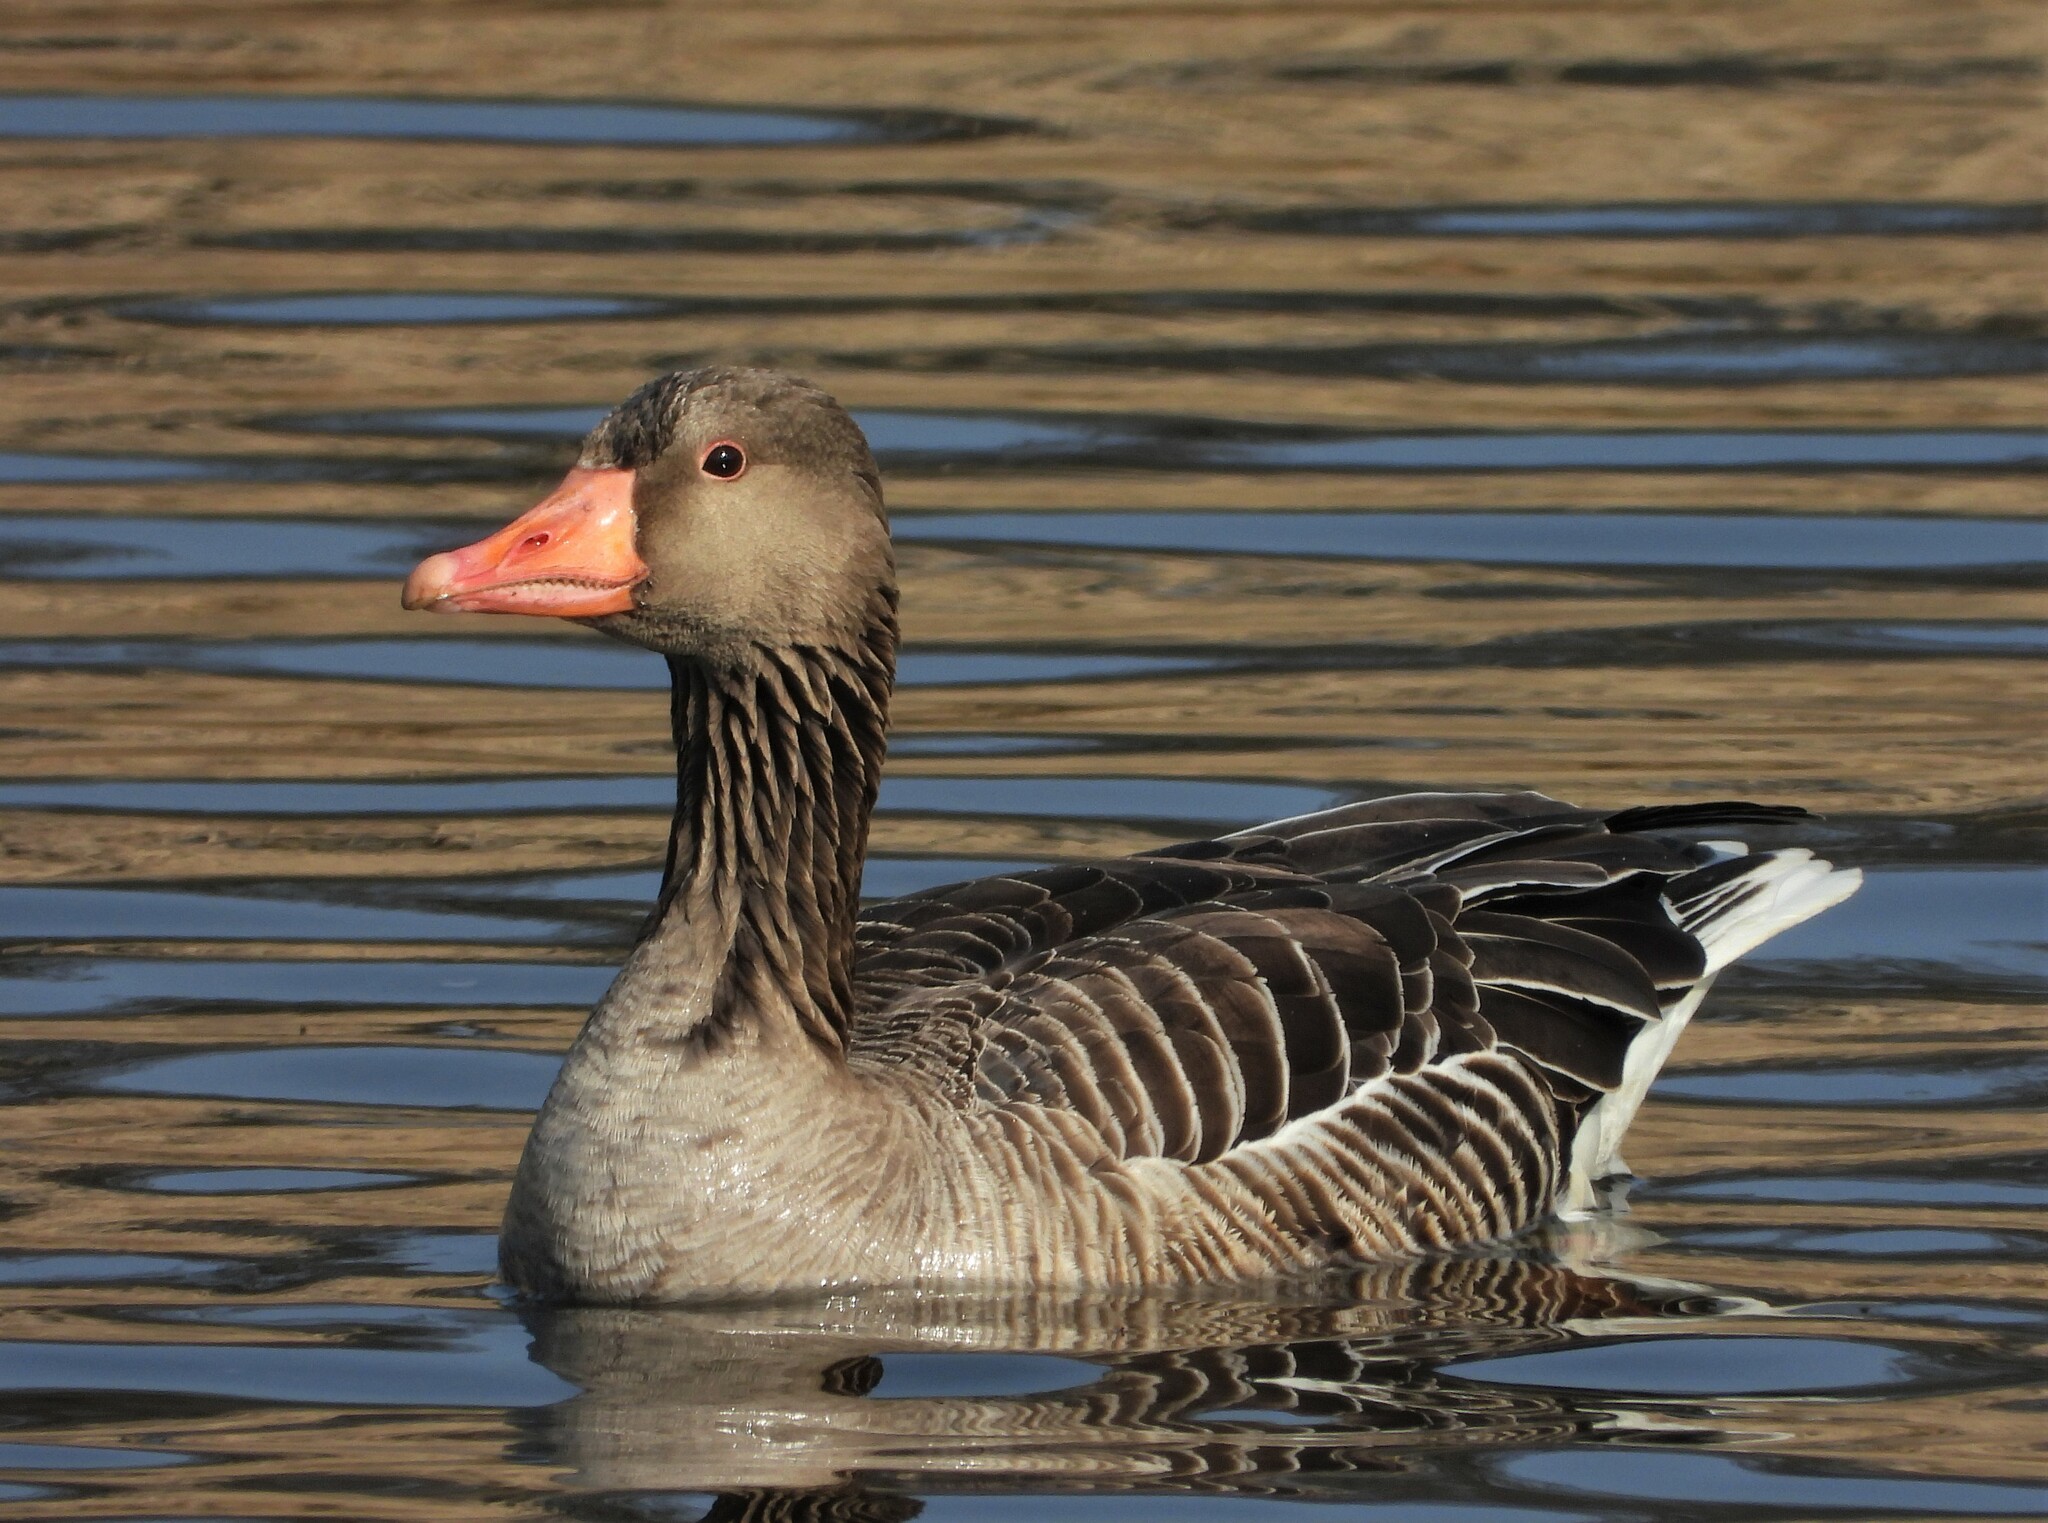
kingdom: Animalia
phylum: Chordata
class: Aves
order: Anseriformes
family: Anatidae
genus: Anser
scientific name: Anser anser
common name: Greylag goose
